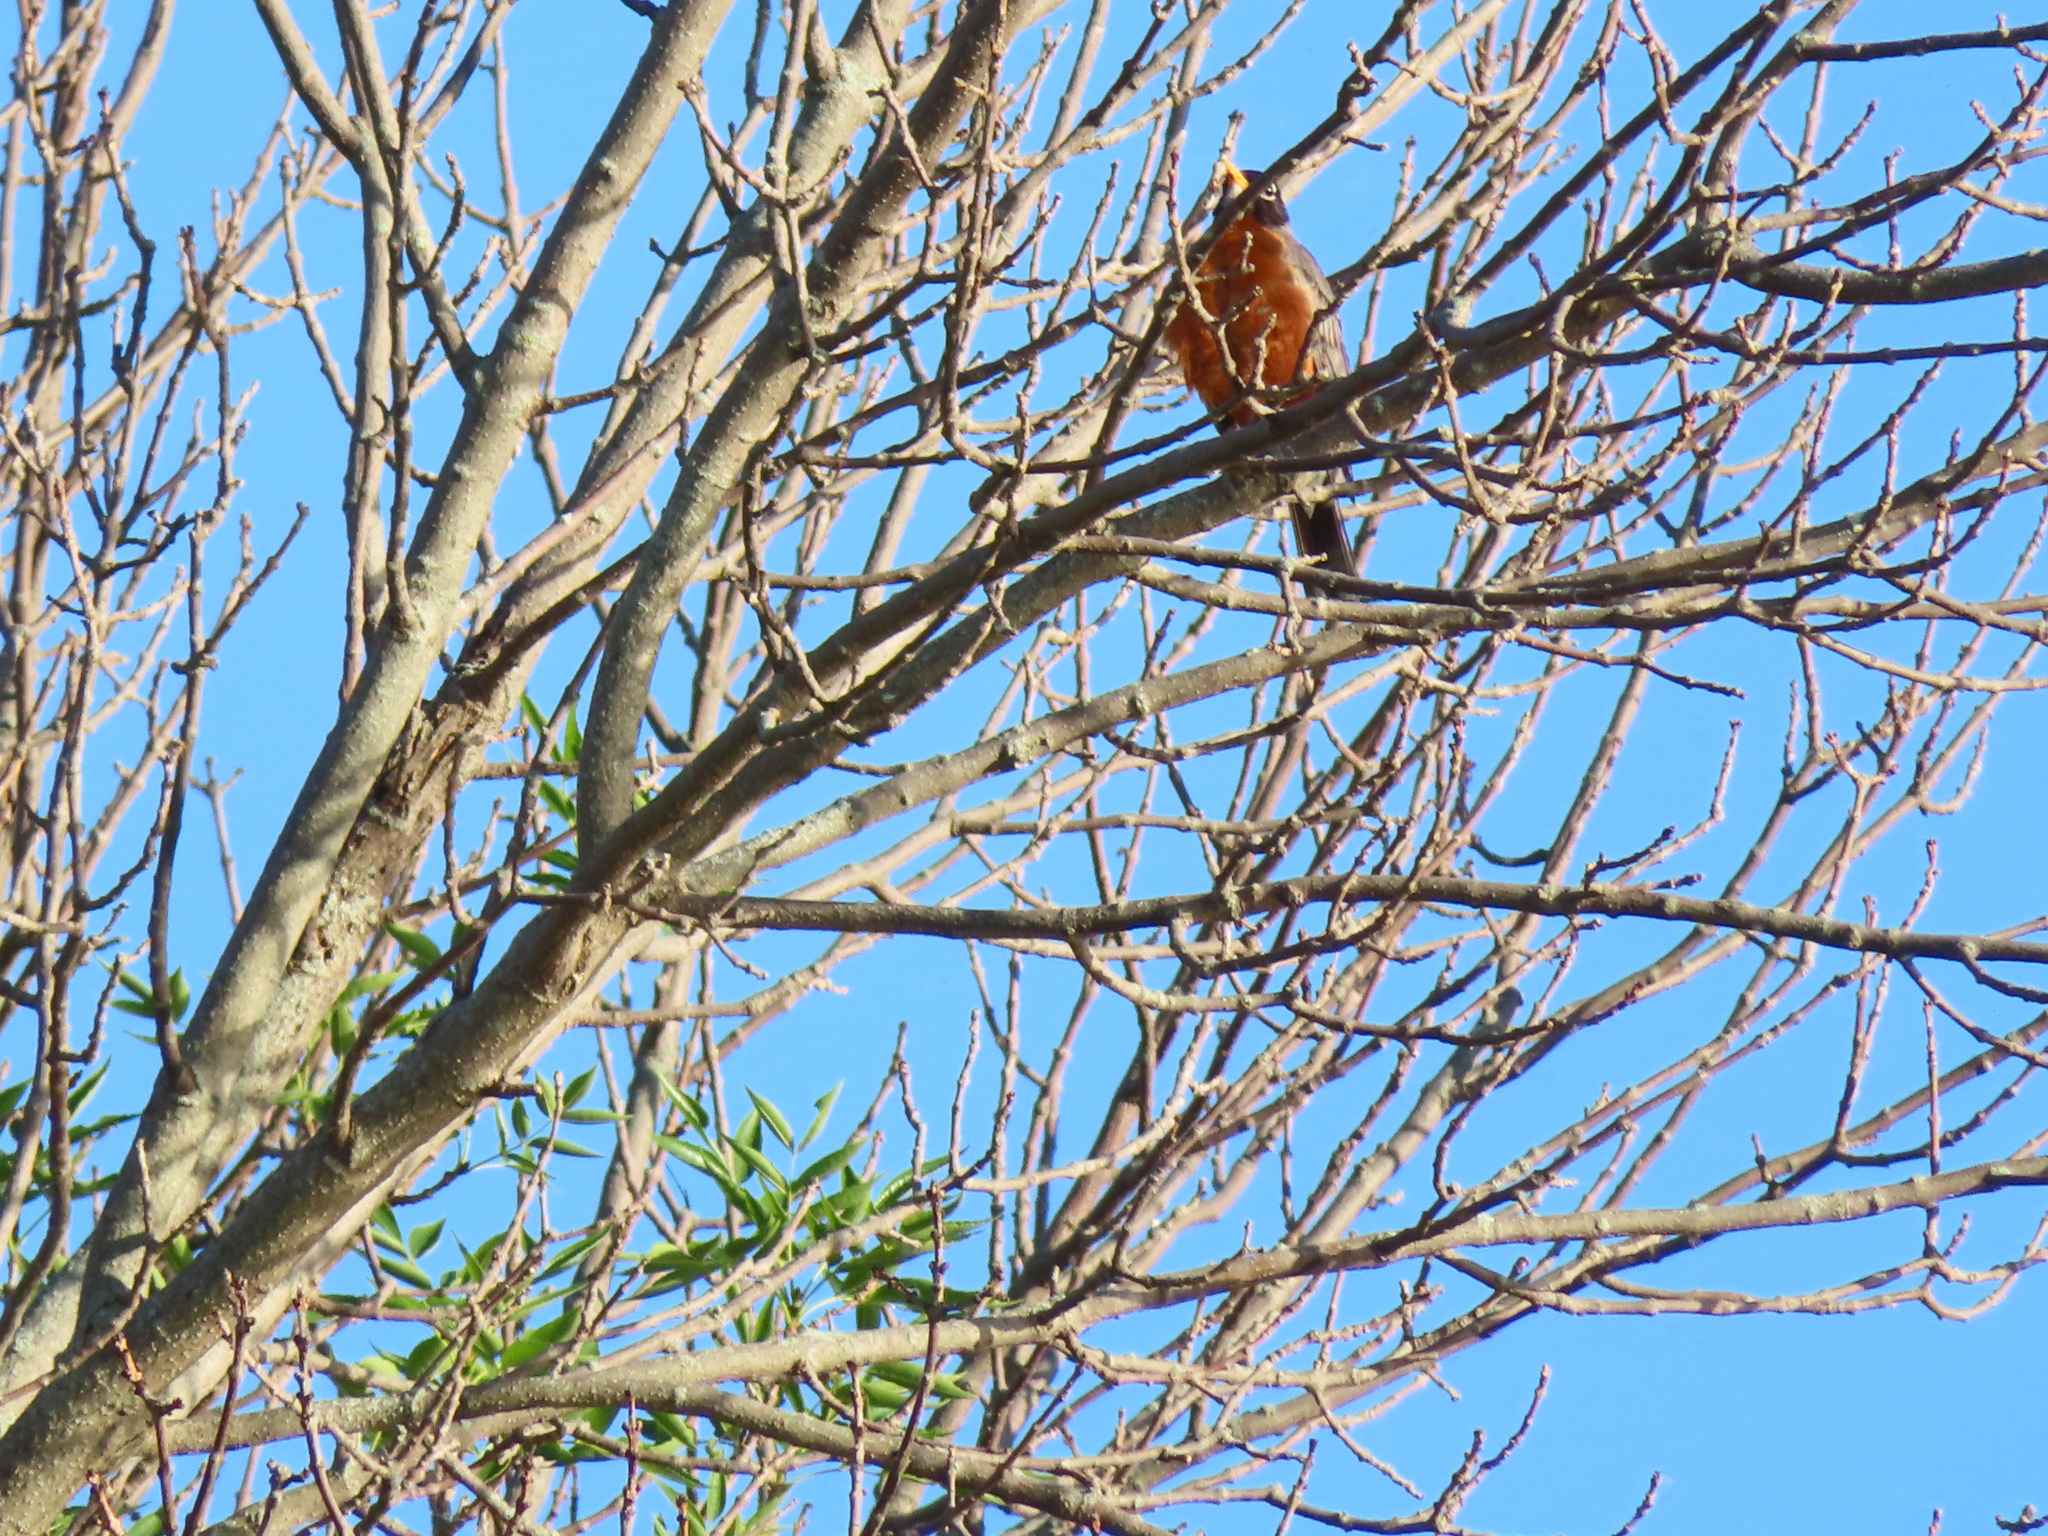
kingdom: Animalia
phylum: Chordata
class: Aves
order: Passeriformes
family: Turdidae
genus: Turdus
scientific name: Turdus migratorius
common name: American robin
